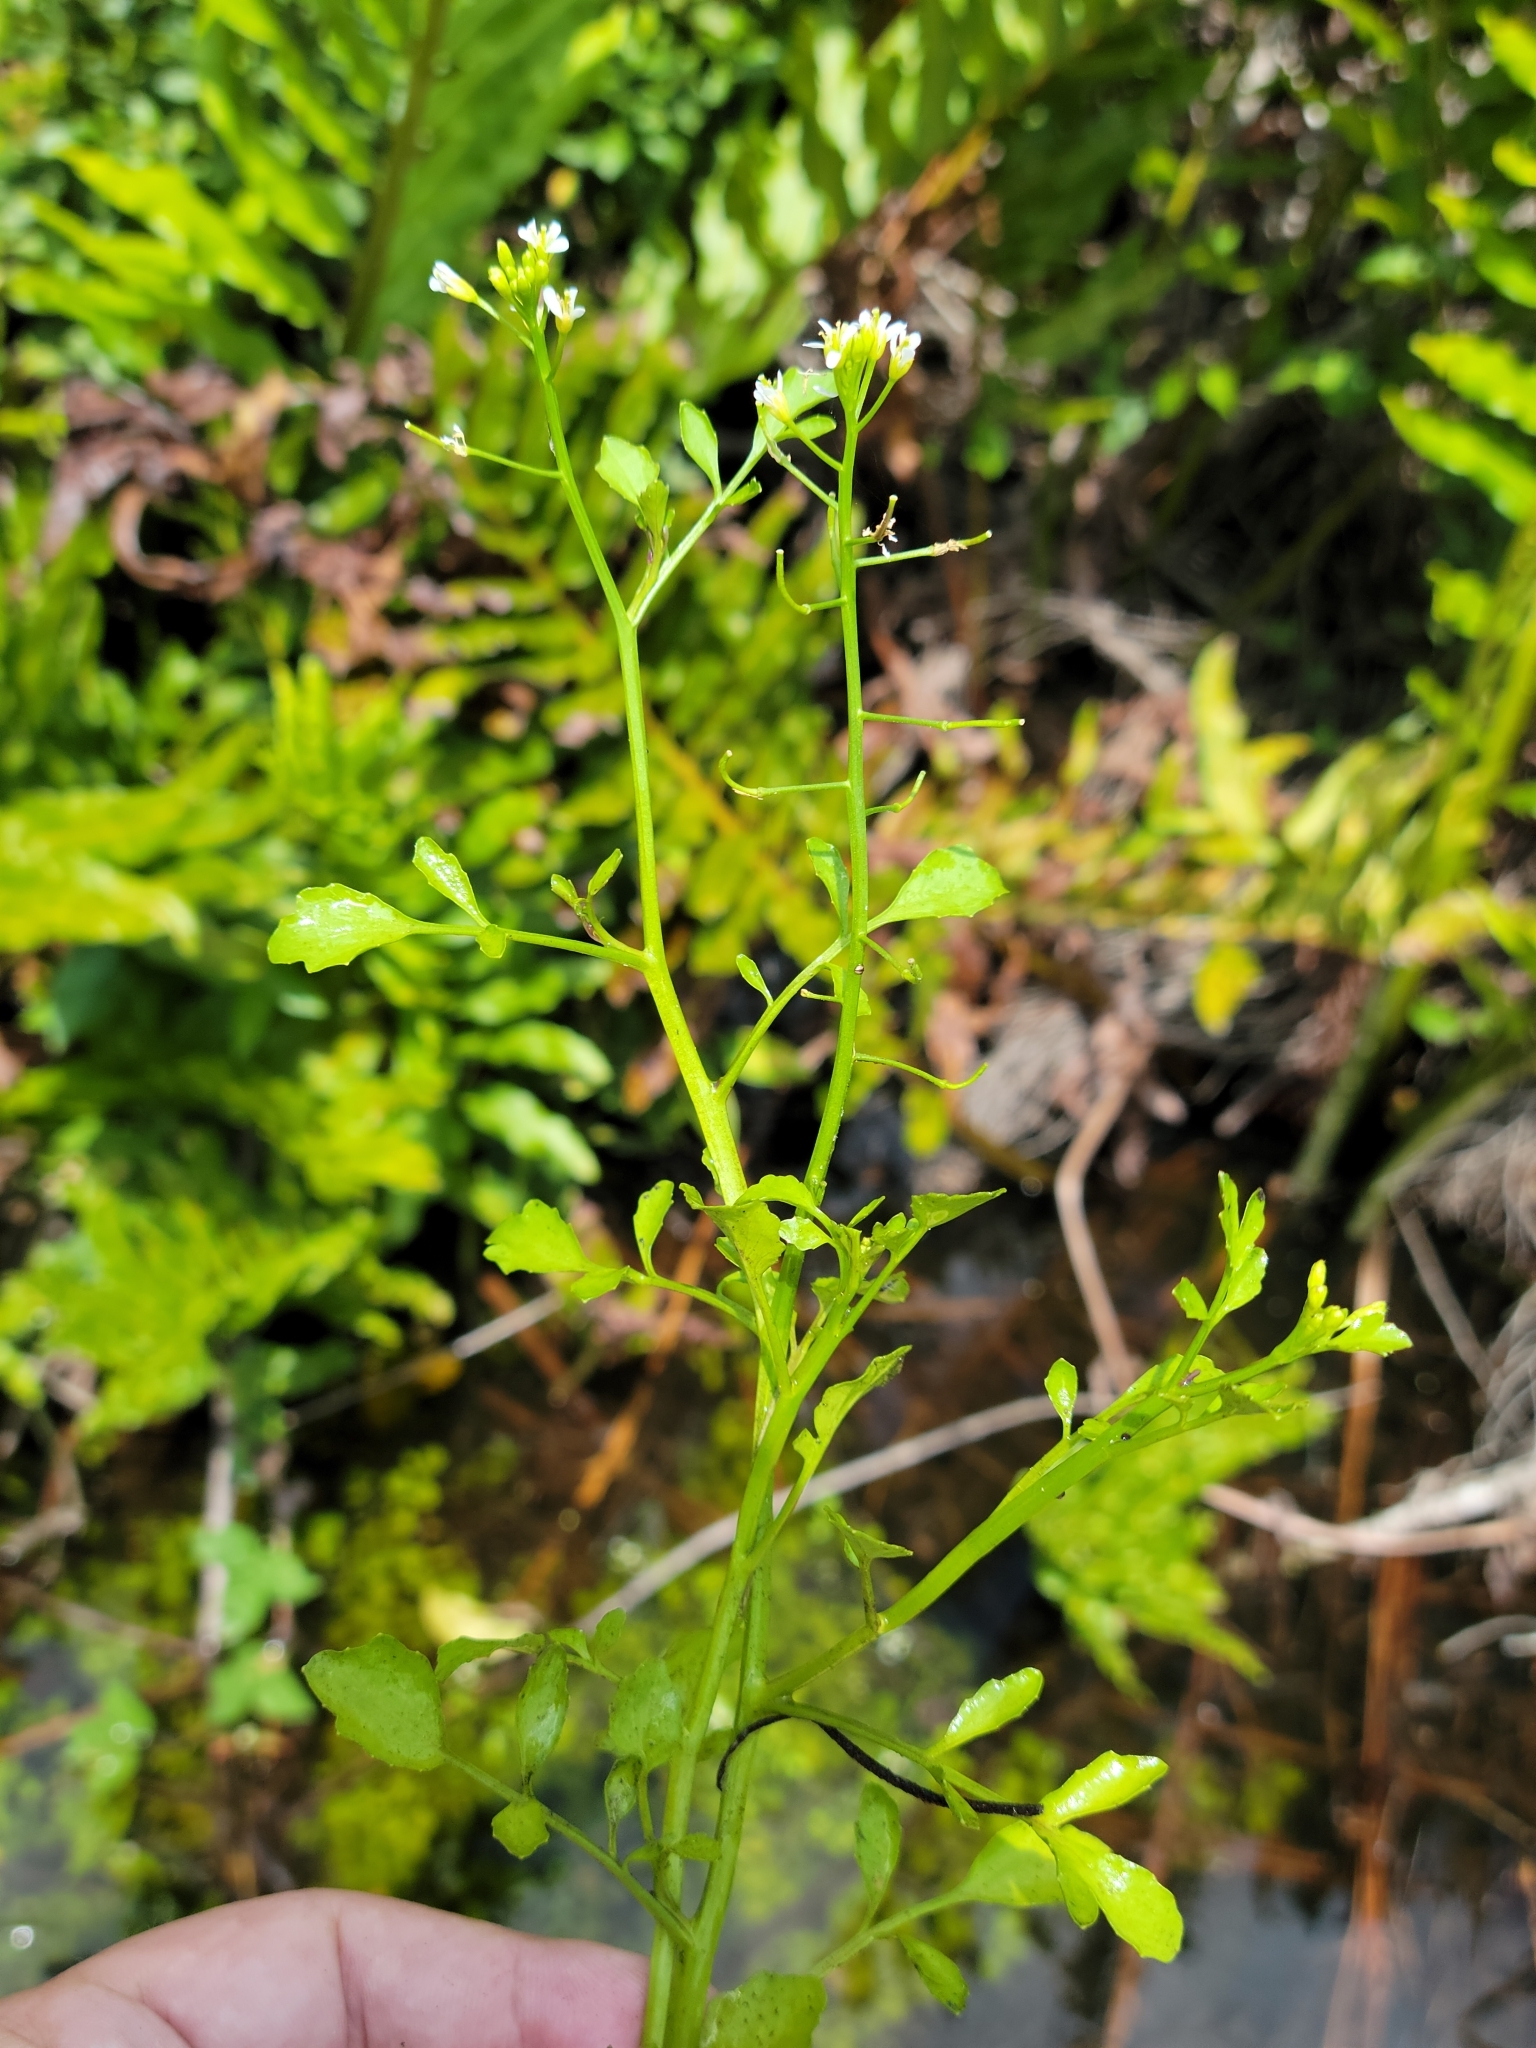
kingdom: Plantae
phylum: Tracheophyta
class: Magnoliopsida
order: Brassicales
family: Brassicaceae
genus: Nasturtium
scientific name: Nasturtium floridanum
